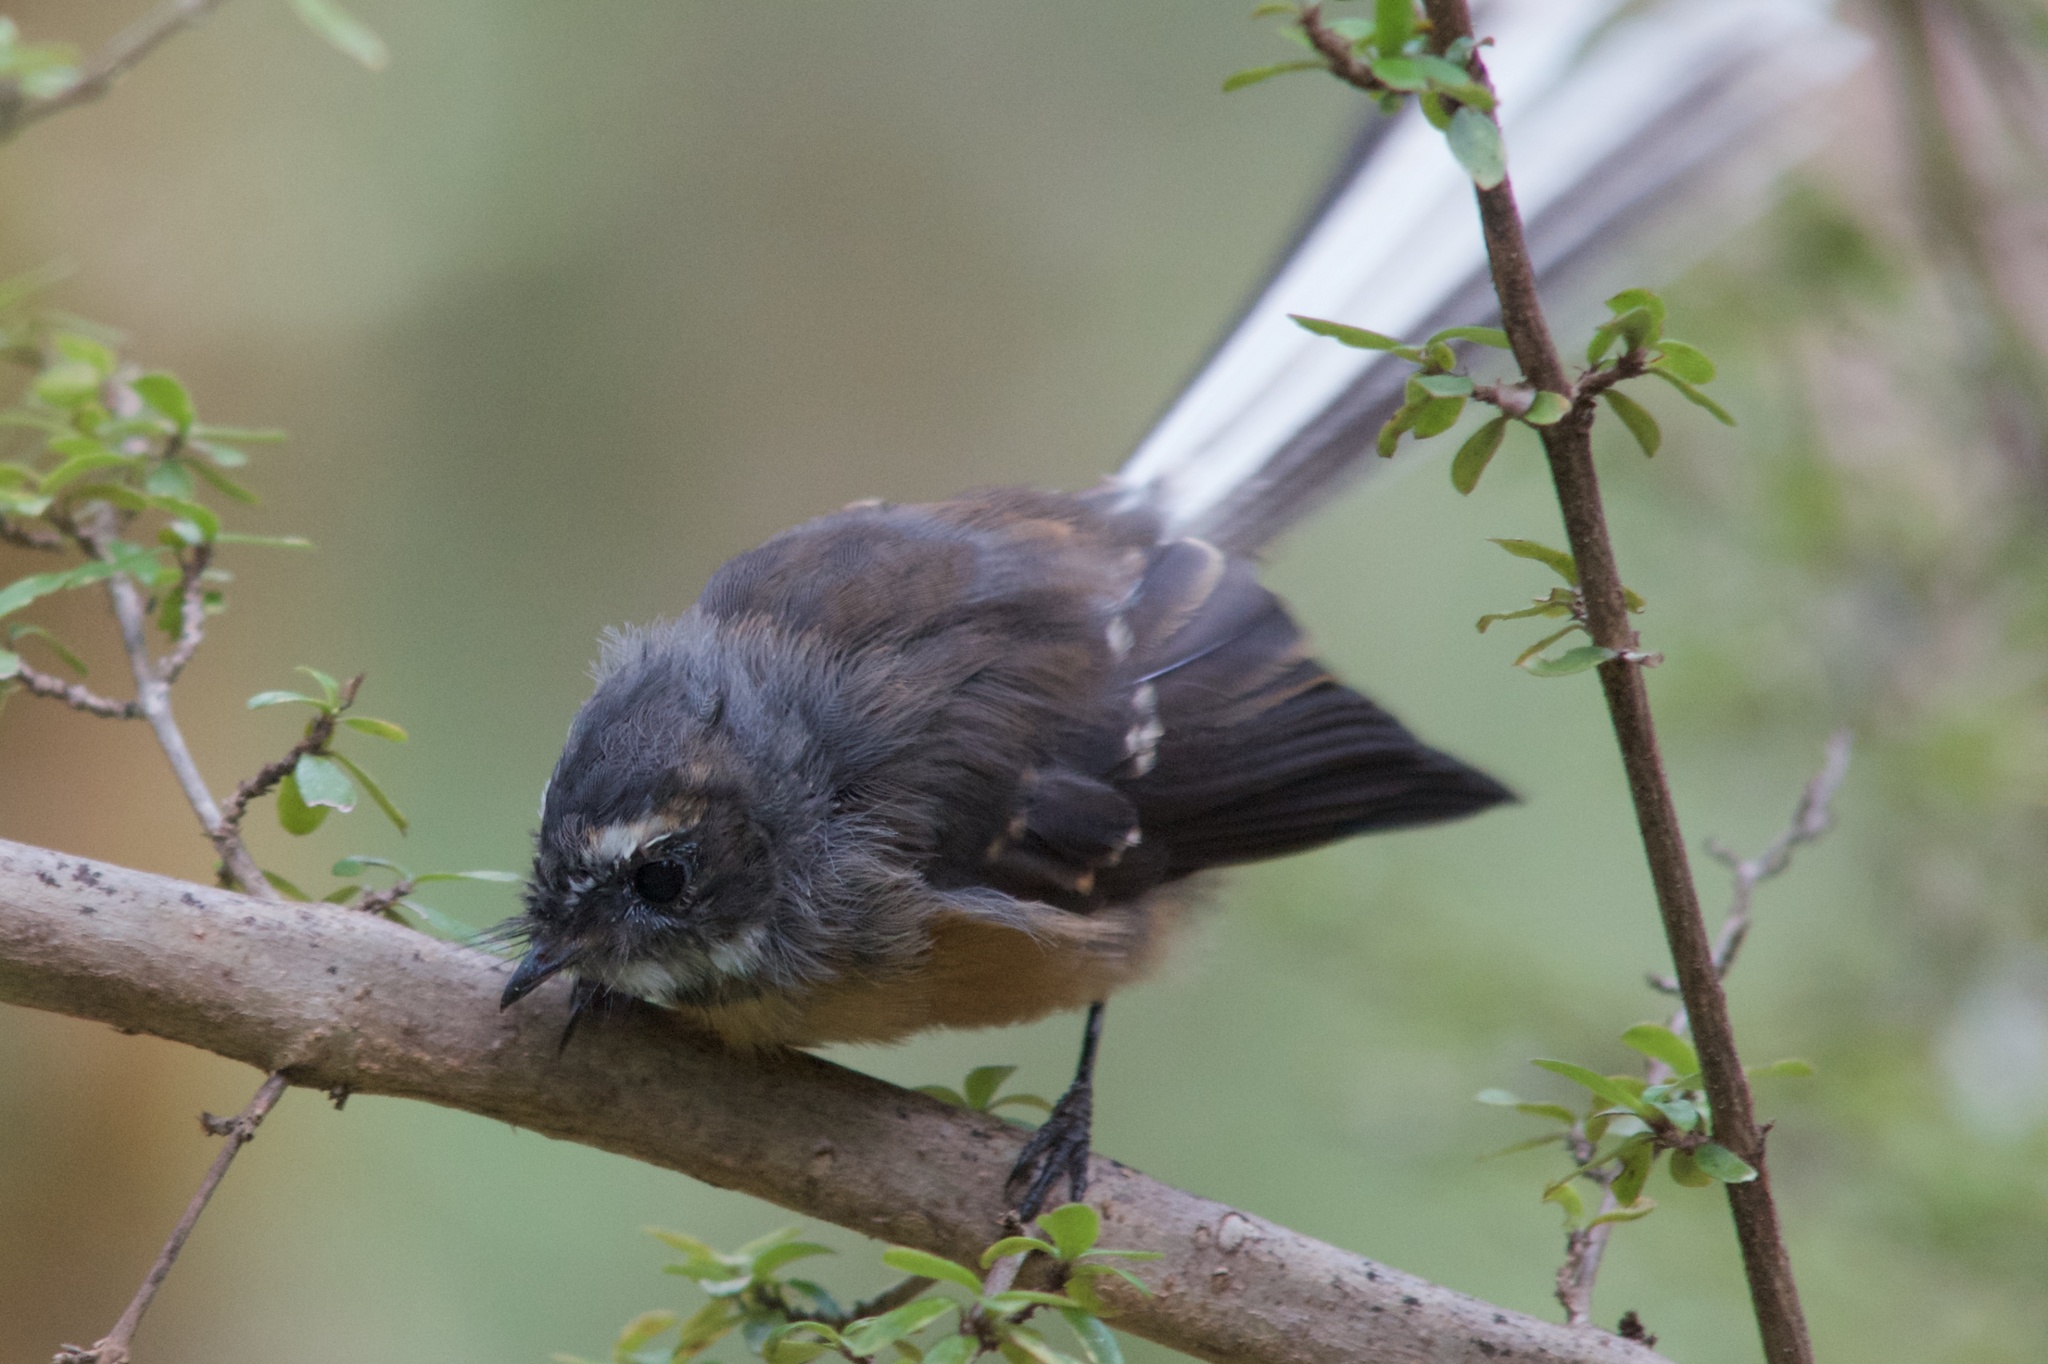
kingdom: Animalia
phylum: Chordata
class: Aves
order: Passeriformes
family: Rhipiduridae
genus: Rhipidura
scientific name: Rhipidura fuliginosa
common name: New zealand fantail
